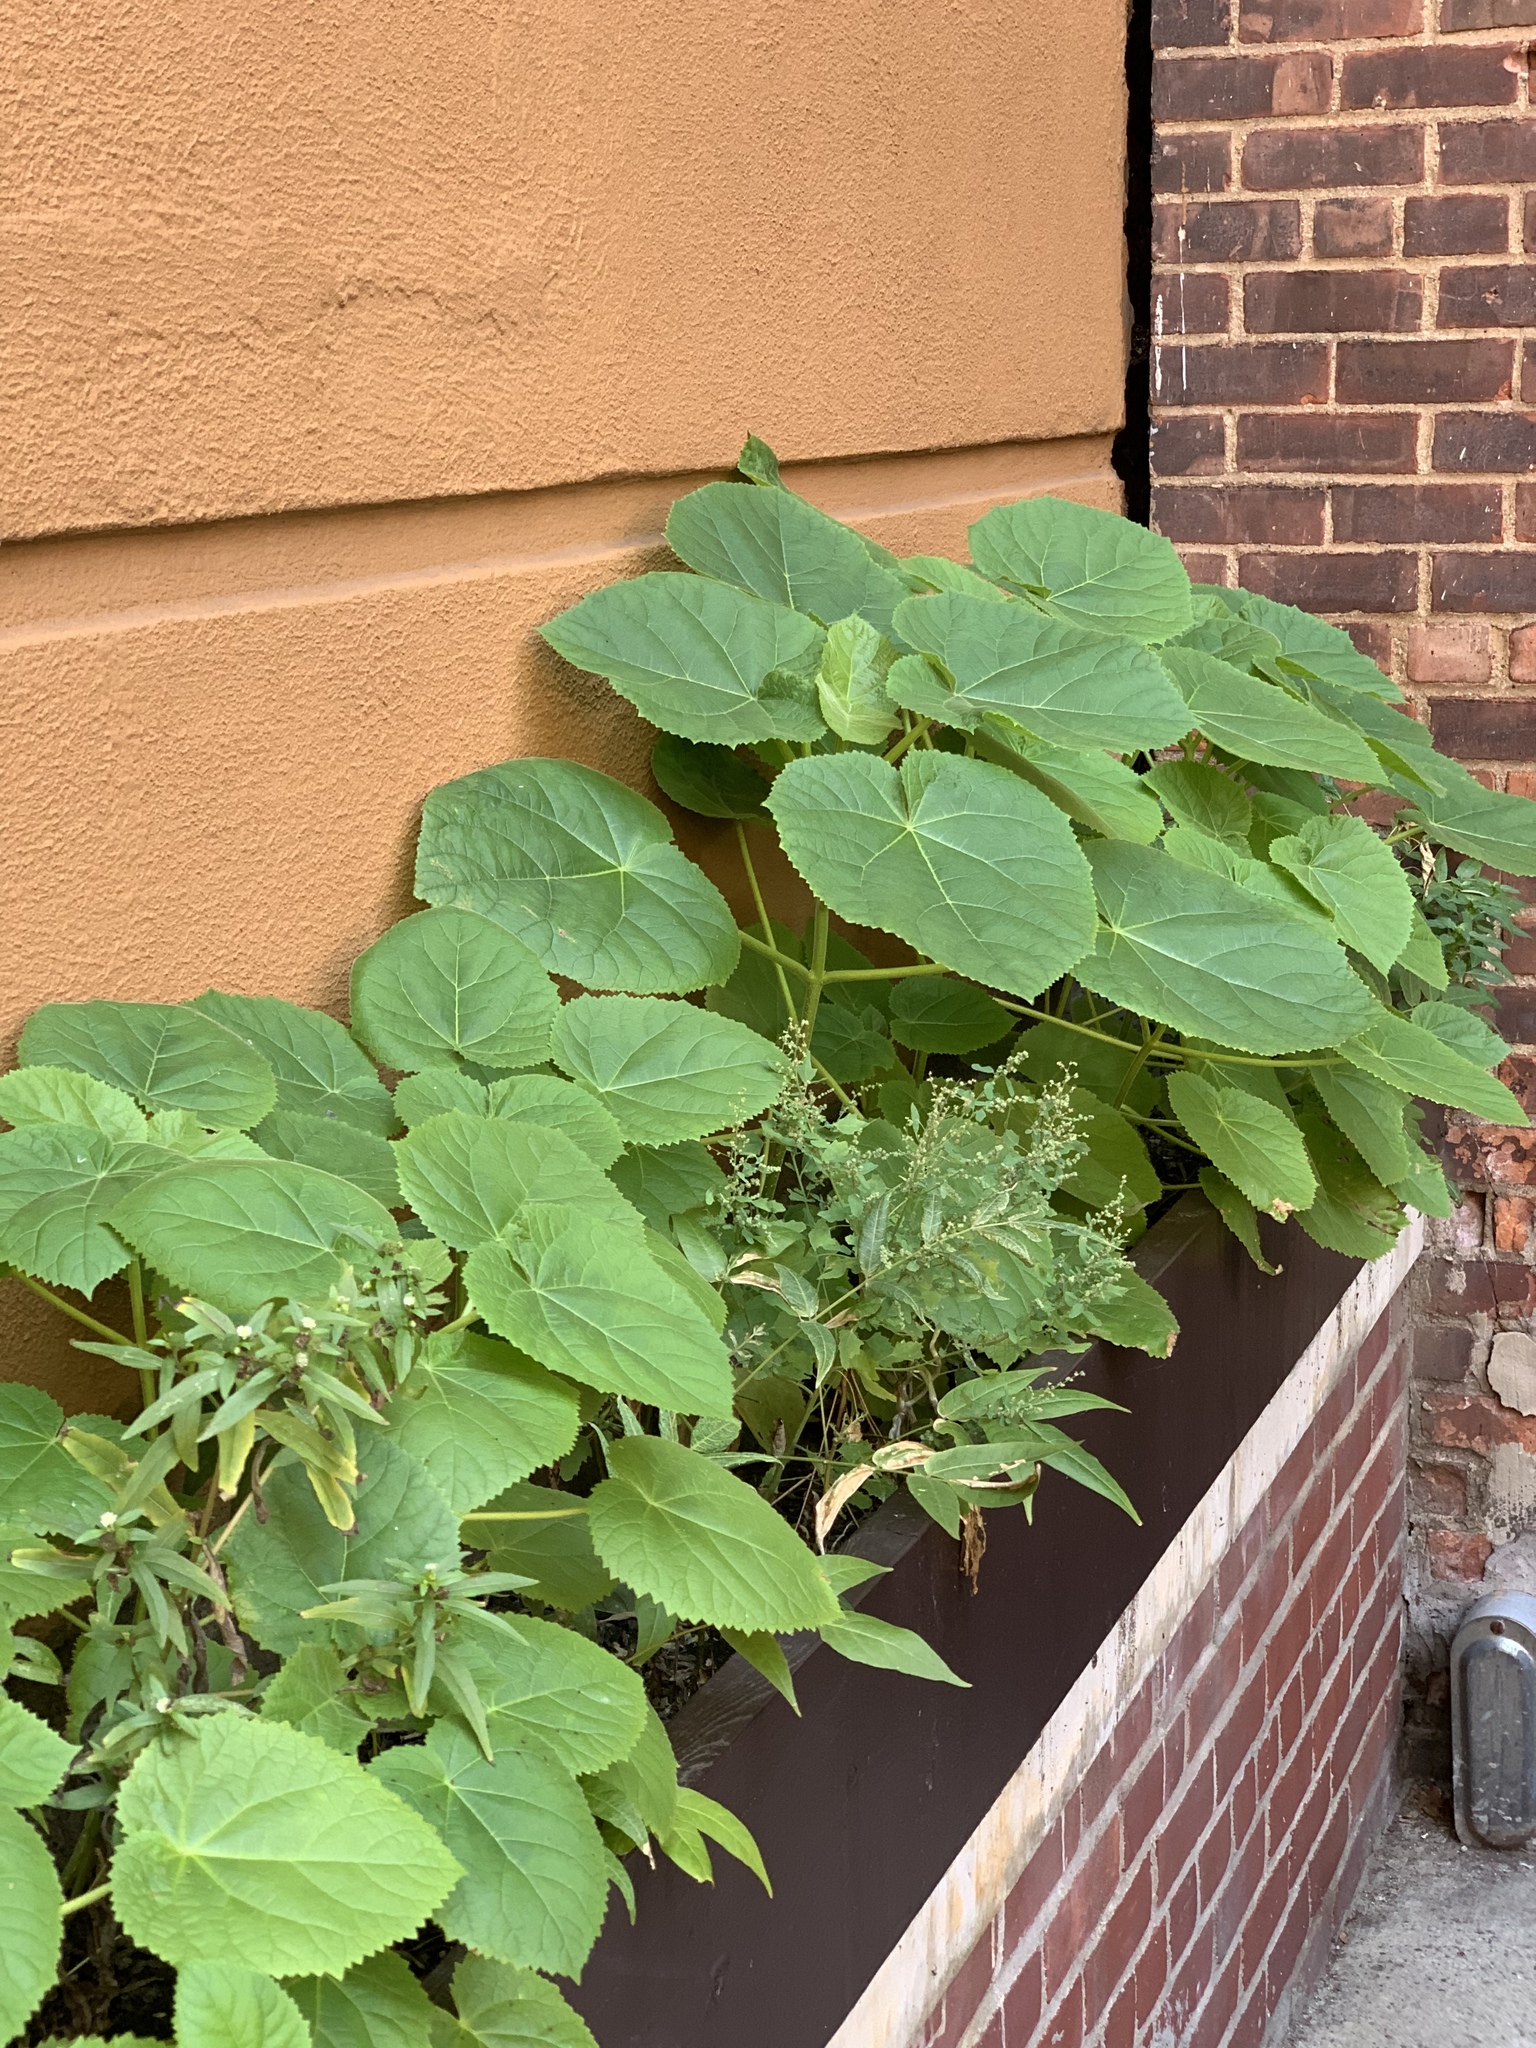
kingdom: Plantae
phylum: Tracheophyta
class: Magnoliopsida
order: Lamiales
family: Paulowniaceae
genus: Paulownia
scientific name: Paulownia tomentosa
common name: Foxglove-tree
